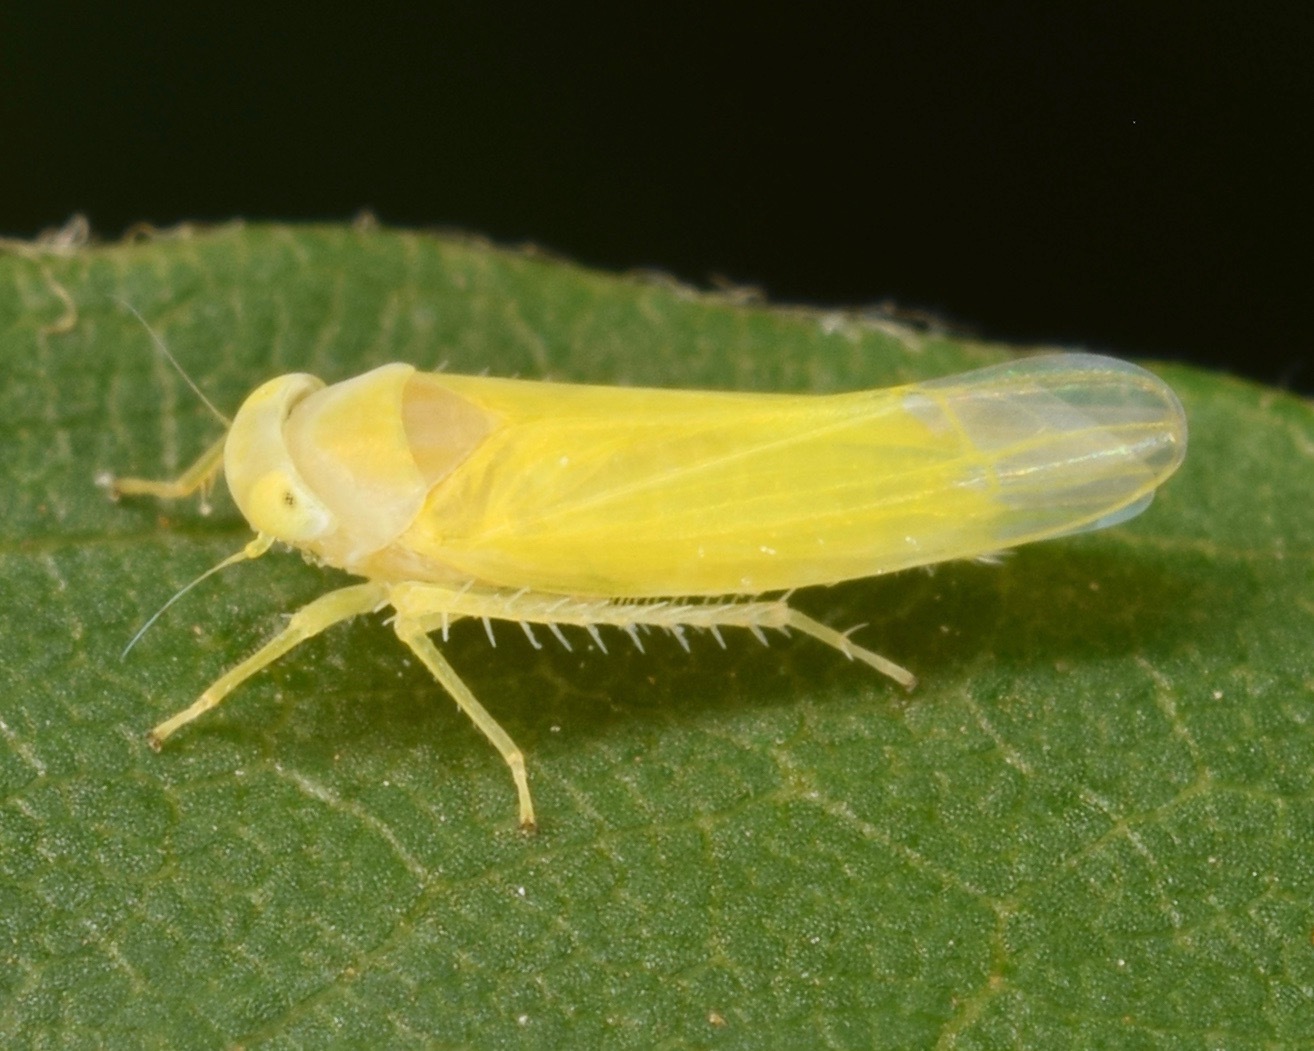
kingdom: Animalia
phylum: Arthropoda
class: Insecta
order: Hemiptera
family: Cicadellidae
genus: Alebra
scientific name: Alebra aurea
